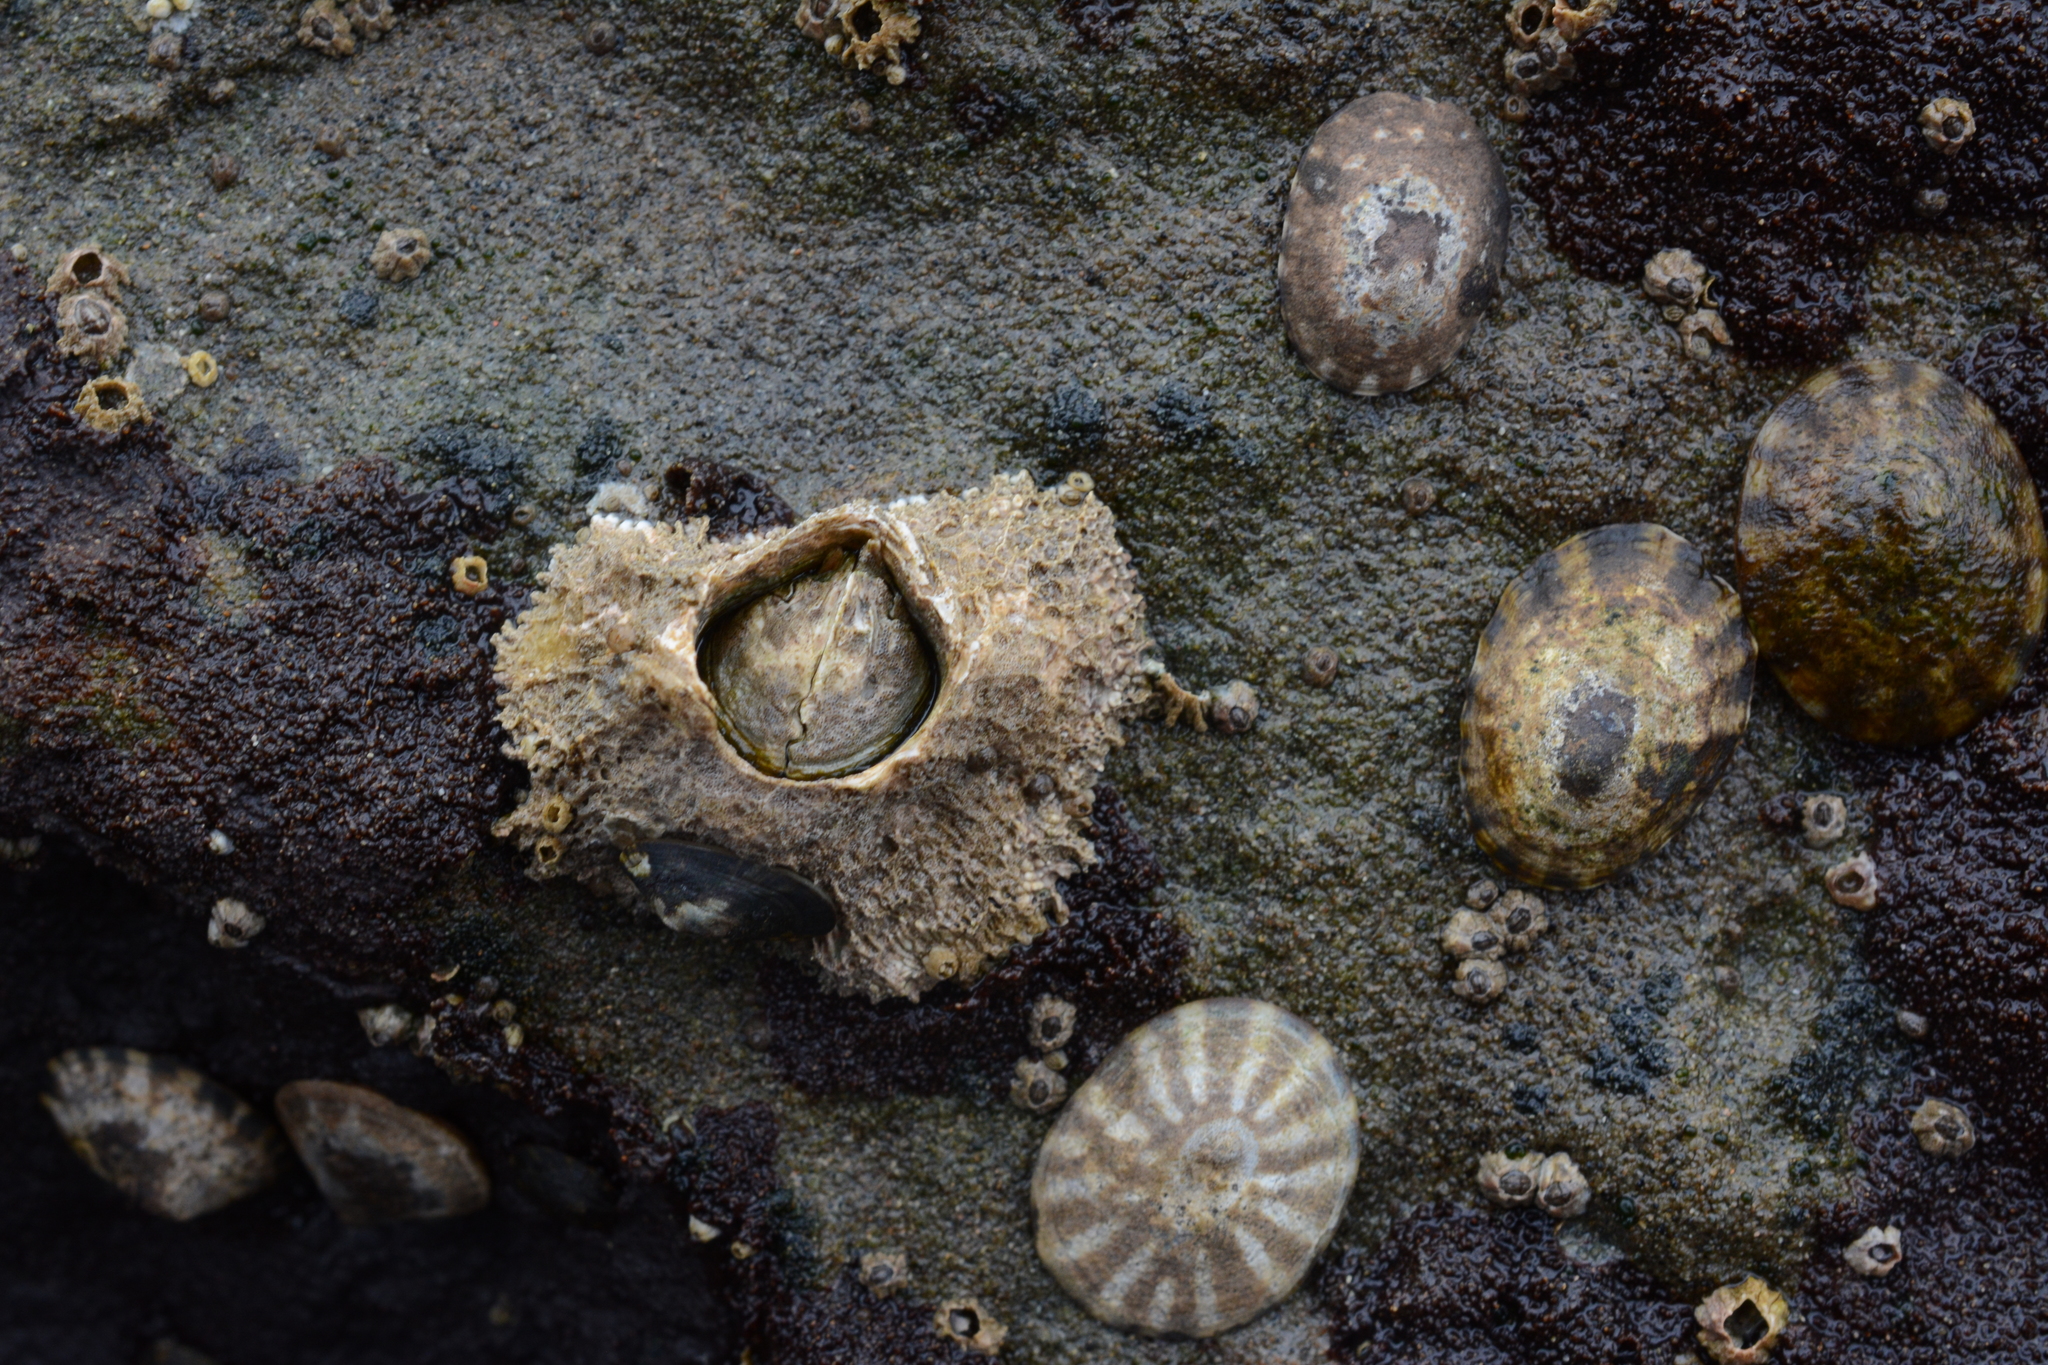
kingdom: Animalia
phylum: Arthropoda
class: Maxillopoda
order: Sessilia
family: Archaeobalanidae
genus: Semibalanus
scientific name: Semibalanus cariosus
